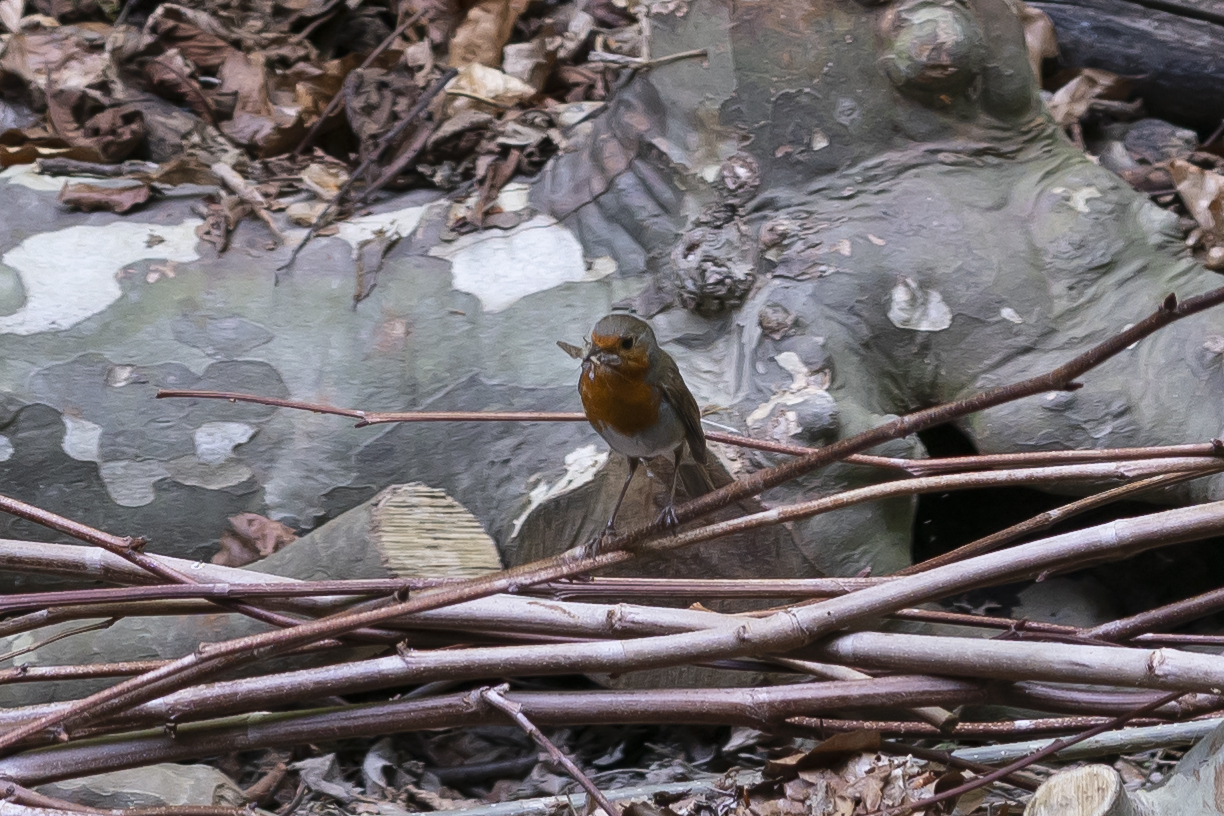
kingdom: Animalia
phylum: Chordata
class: Aves
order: Passeriformes
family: Muscicapidae
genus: Erithacus
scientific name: Erithacus rubecula
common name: European robin
